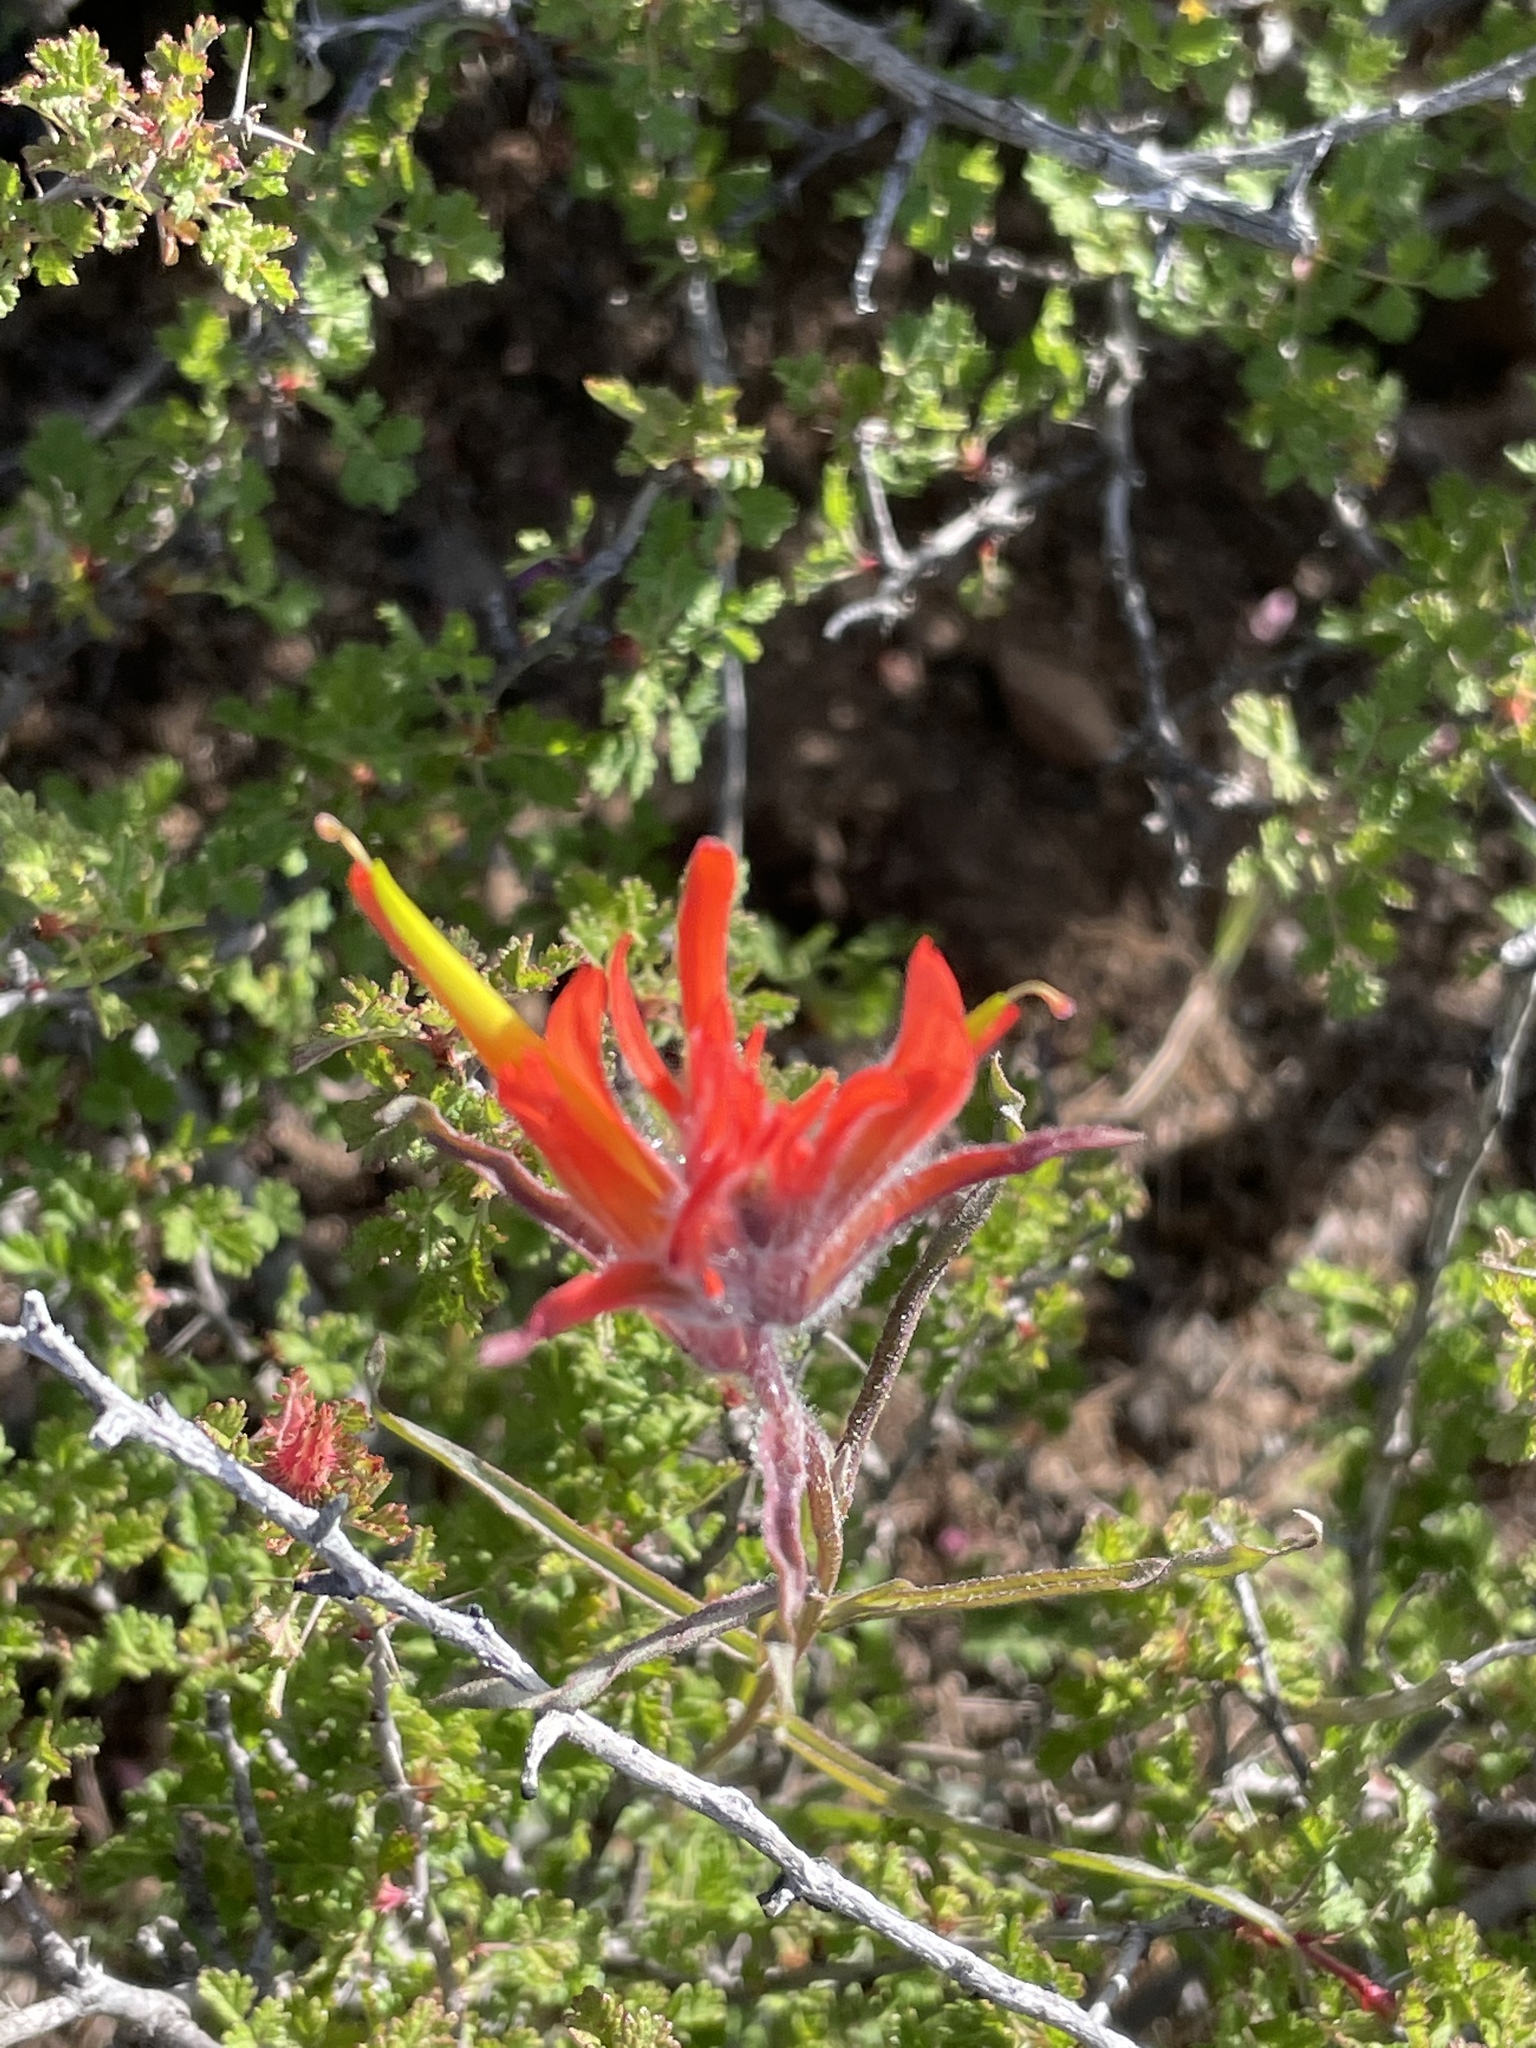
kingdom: Plantae
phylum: Tracheophyta
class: Magnoliopsida
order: Lamiales
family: Orobanchaceae
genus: Castilleja
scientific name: Castilleja affinis
